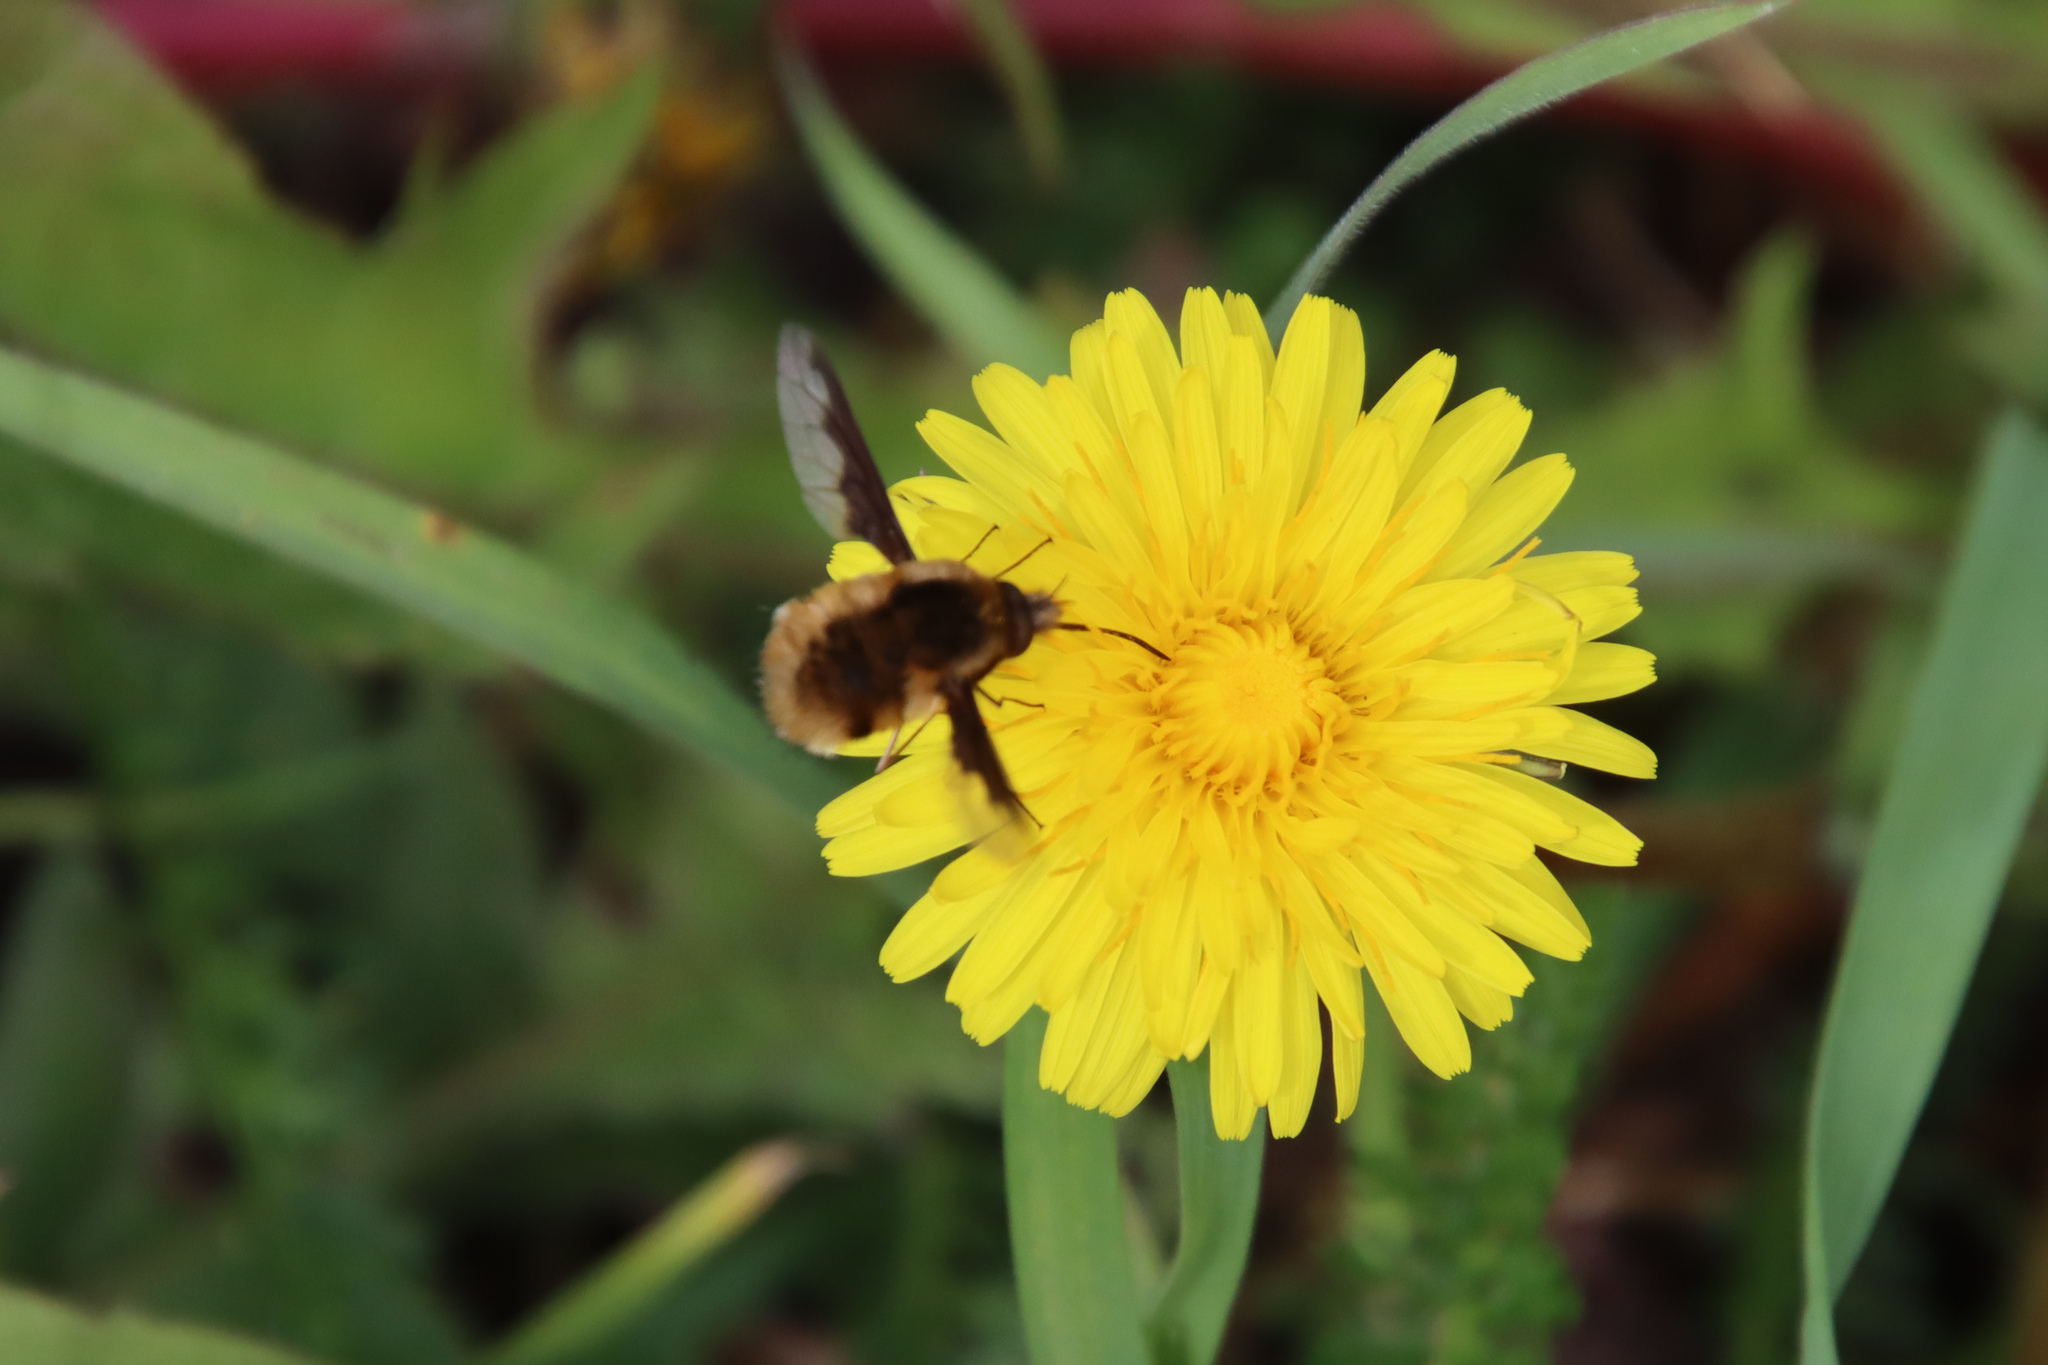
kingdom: Animalia
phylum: Arthropoda
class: Insecta
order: Diptera
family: Bombyliidae
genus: Bombylius
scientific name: Bombylius major
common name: Bee fly
